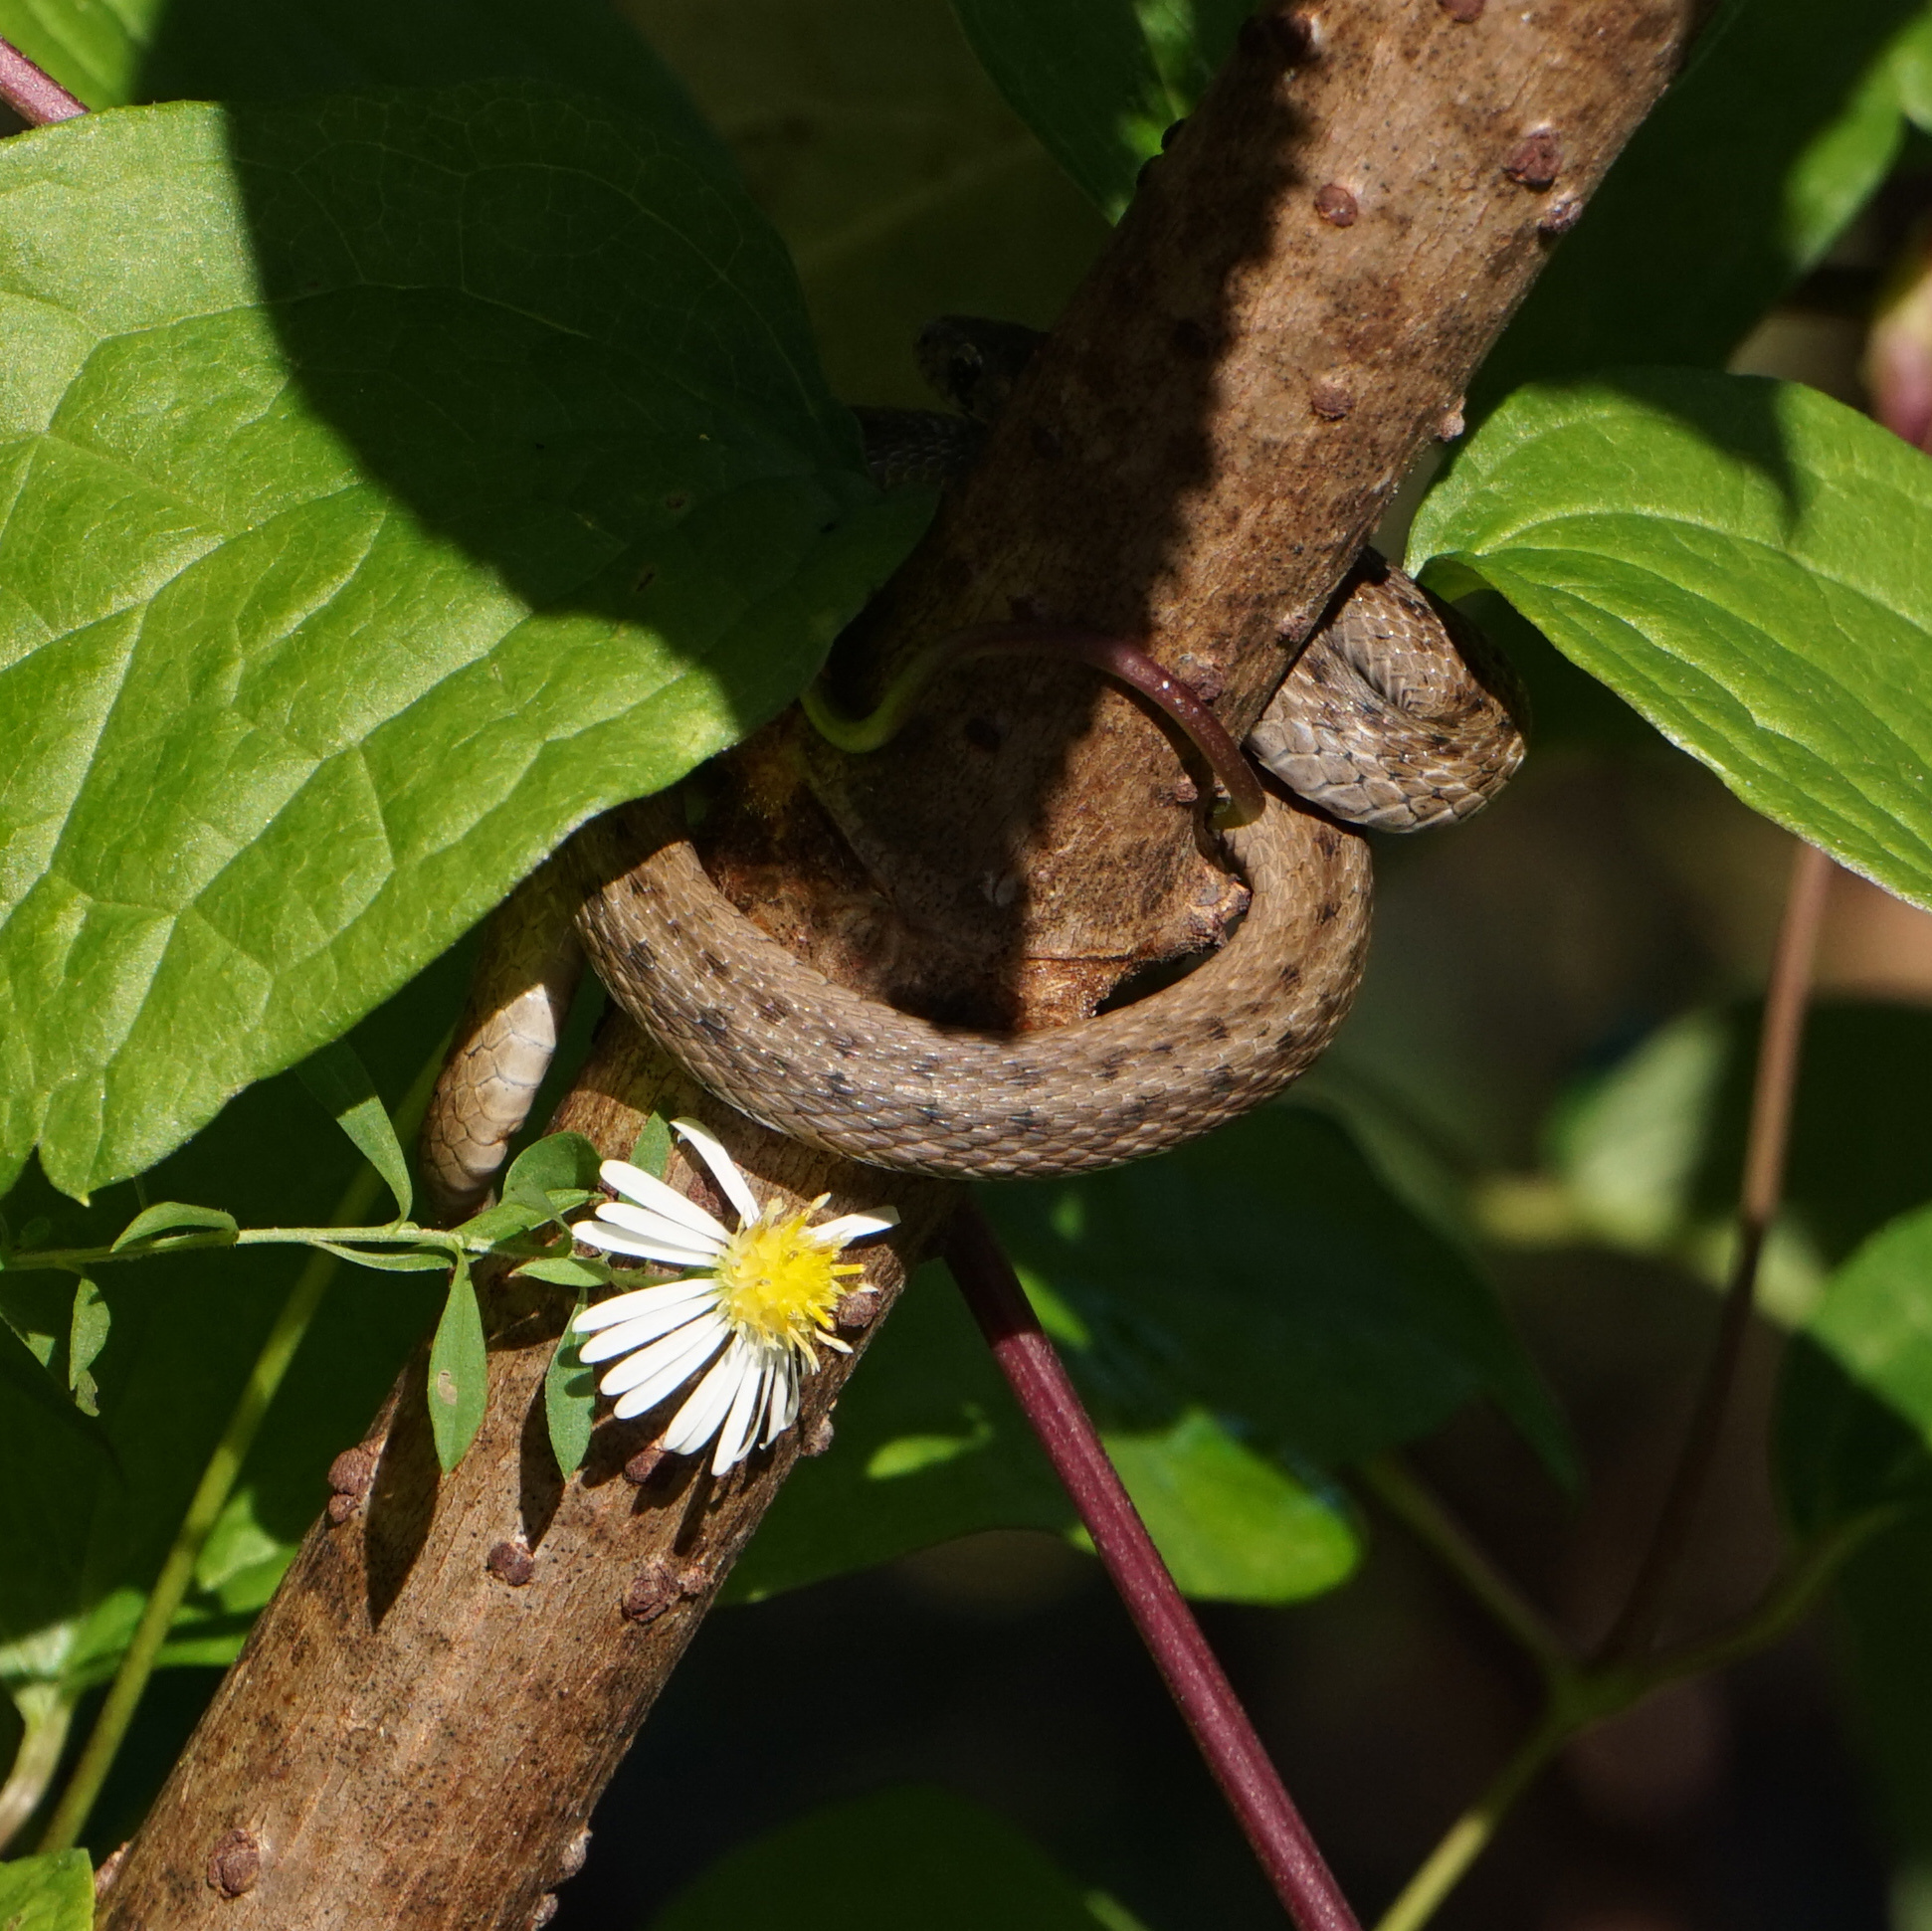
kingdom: Animalia
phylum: Chordata
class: Squamata
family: Colubridae
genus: Storeria
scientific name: Storeria dekayi
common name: (dekay’s) brown snake
